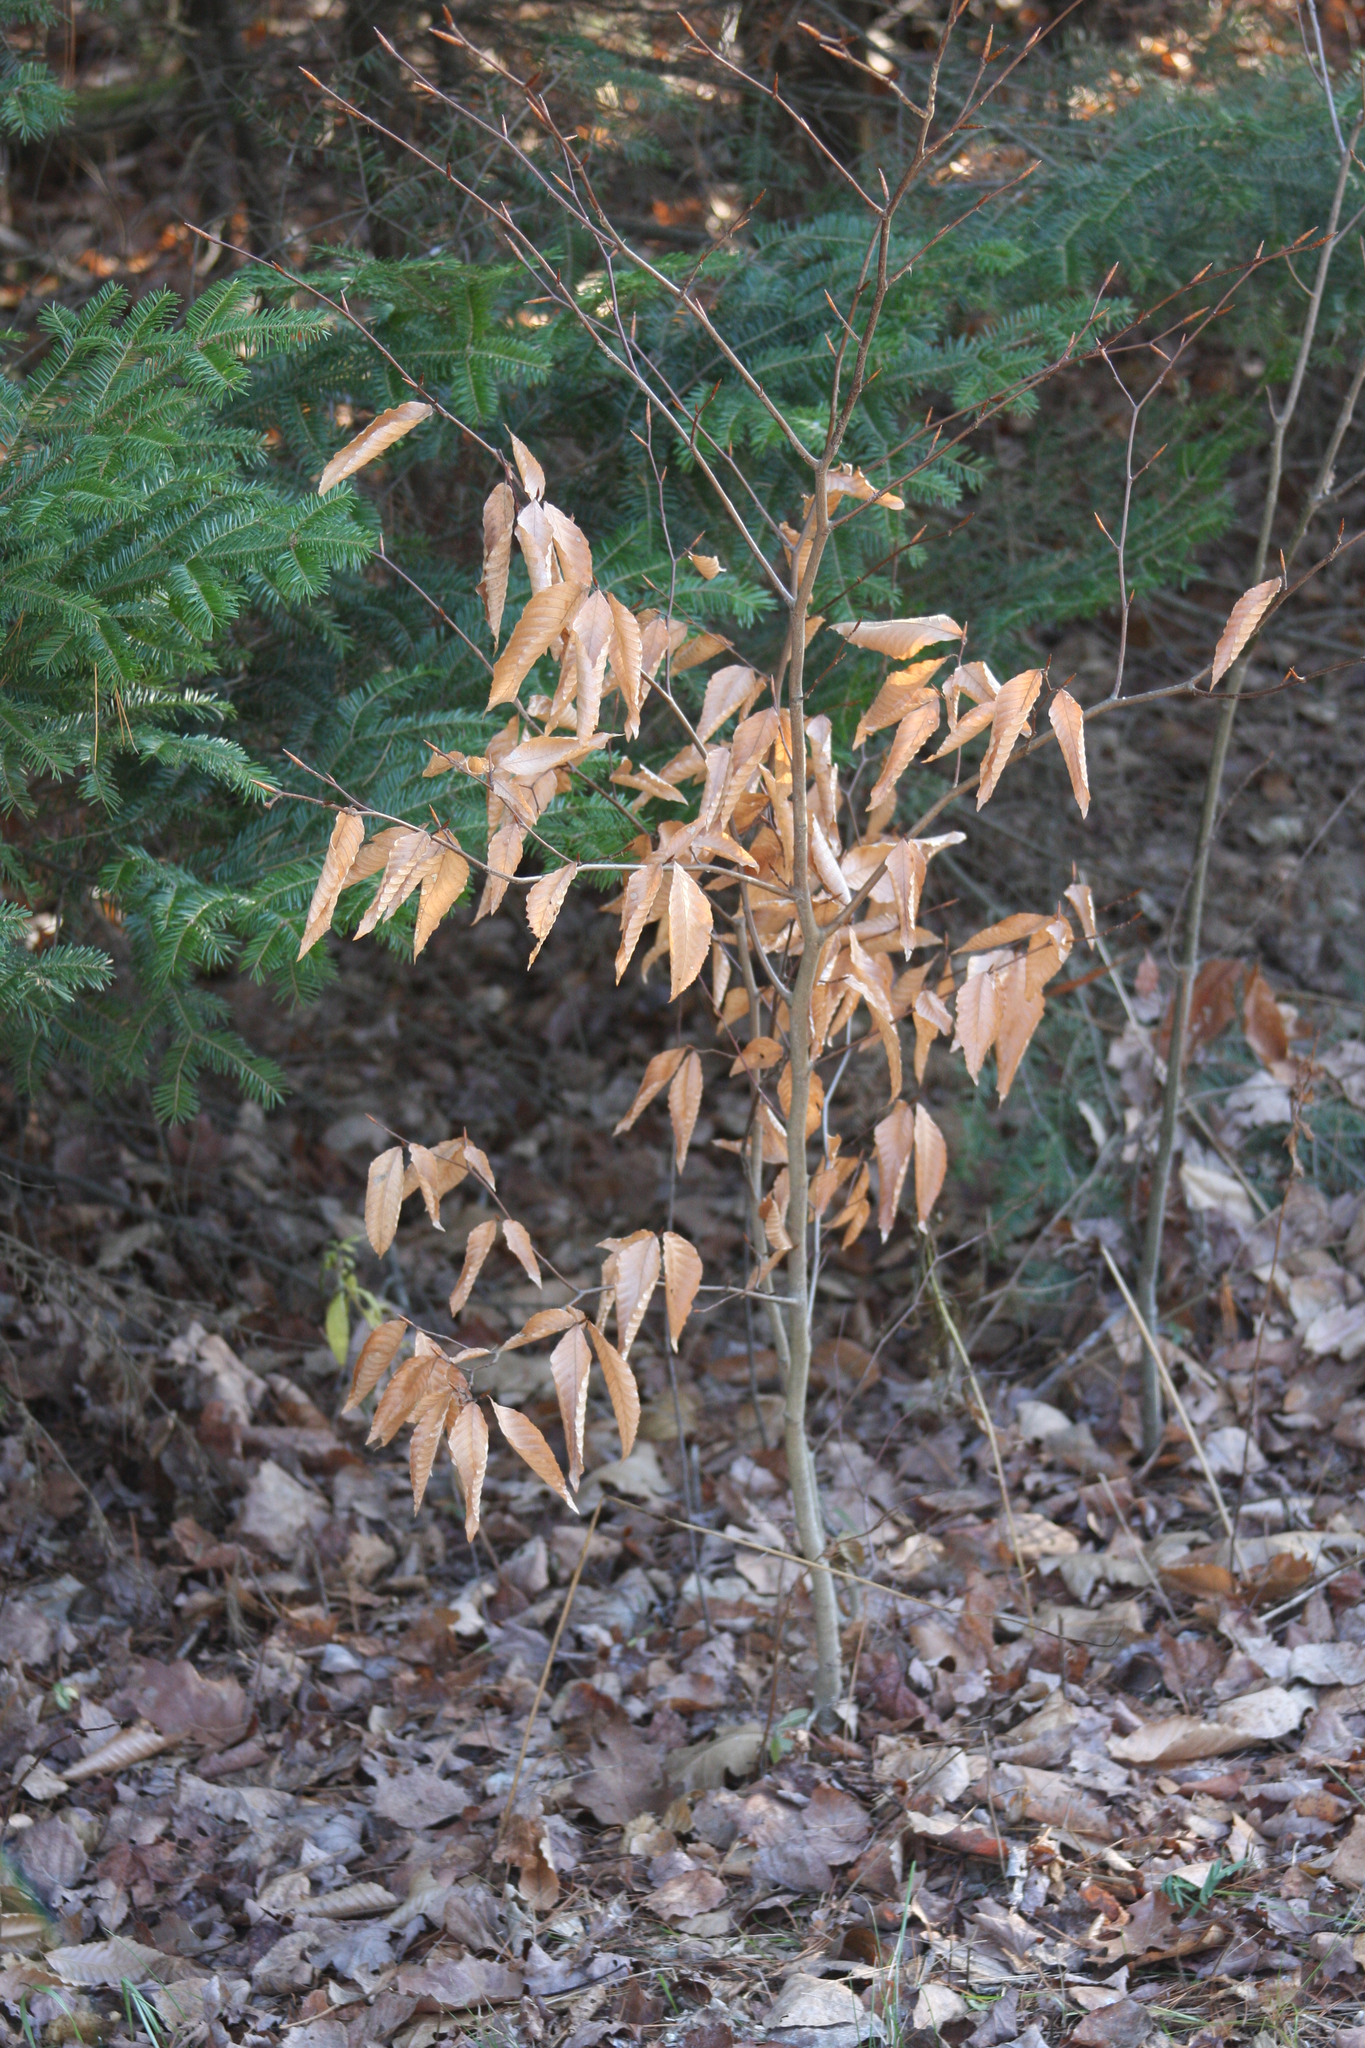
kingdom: Plantae
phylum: Tracheophyta
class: Magnoliopsida
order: Fagales
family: Fagaceae
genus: Fagus
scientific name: Fagus grandifolia
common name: American beech
